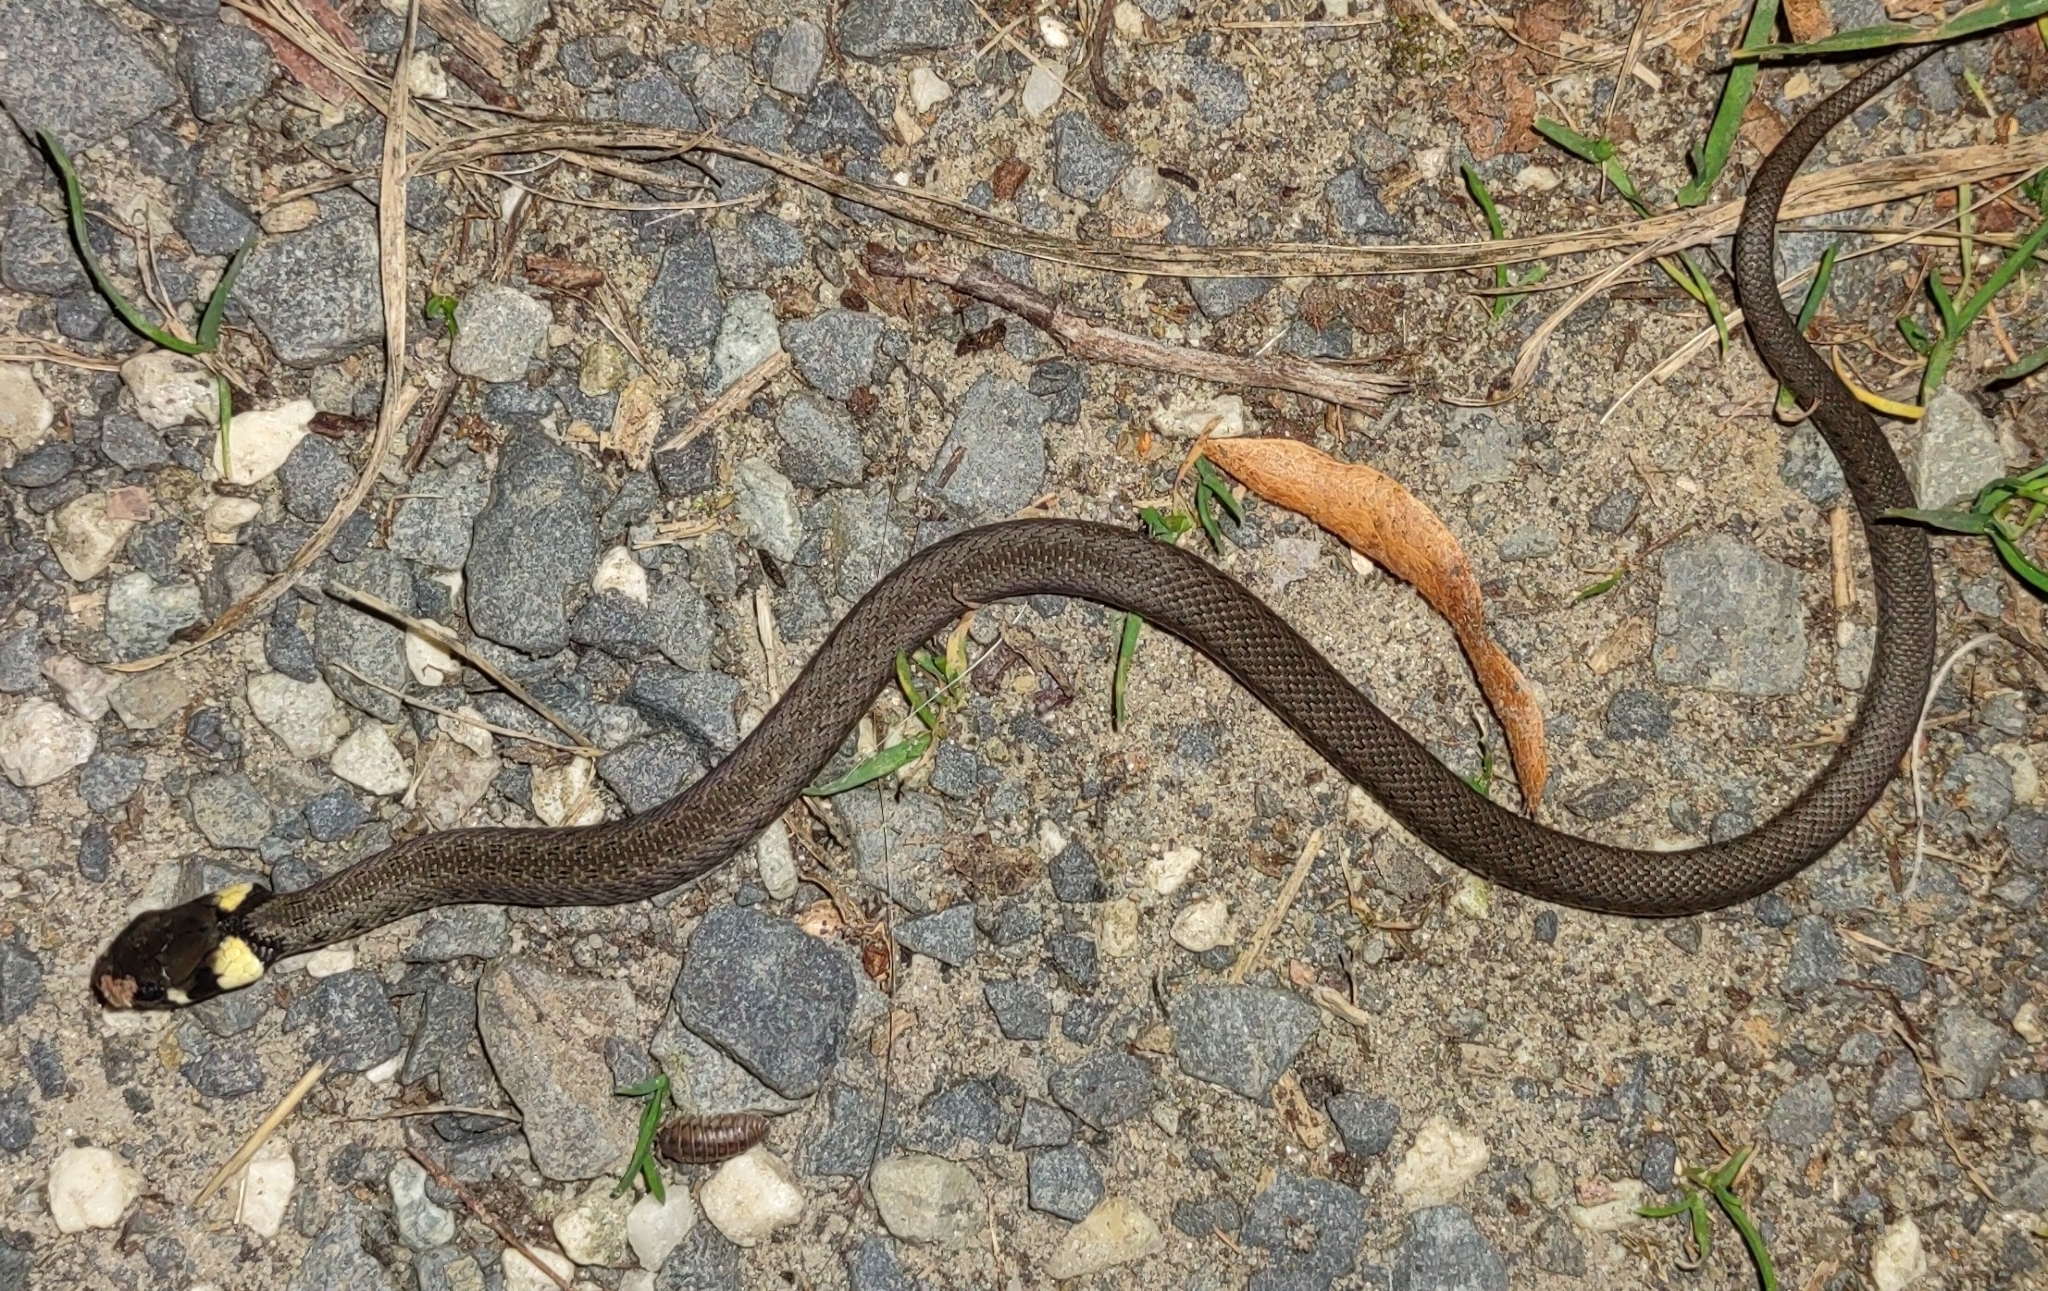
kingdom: Animalia
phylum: Chordata
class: Squamata
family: Colubridae
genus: Natrix
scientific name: Natrix natrix
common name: Grass snake
